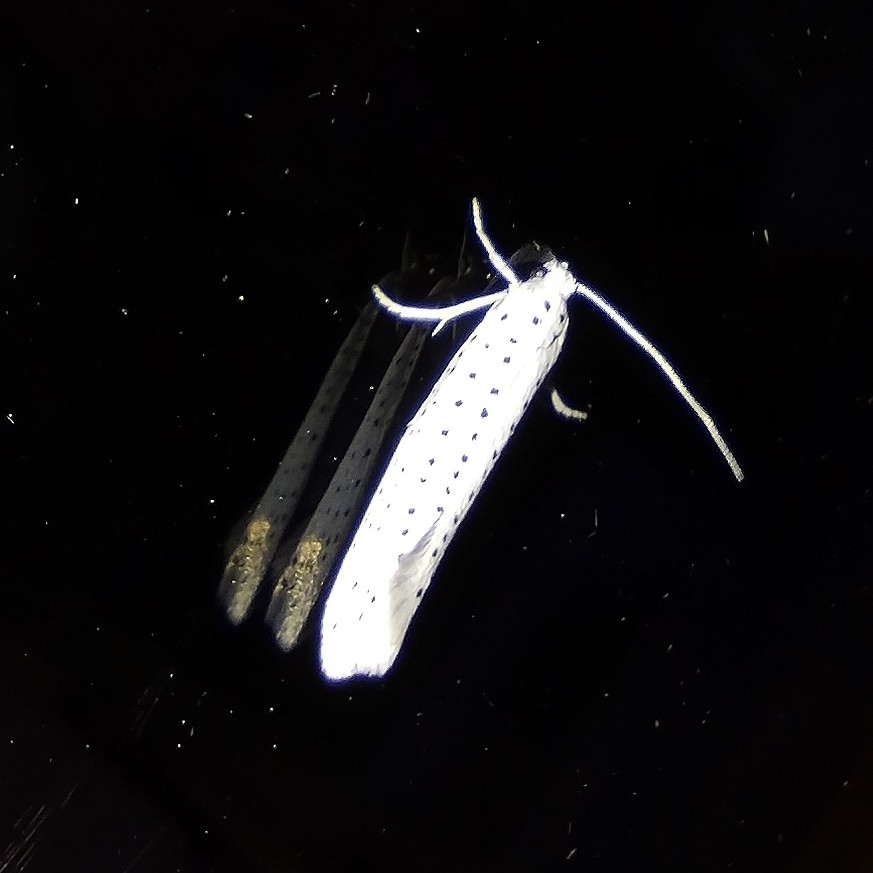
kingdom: Animalia
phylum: Arthropoda
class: Insecta
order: Lepidoptera
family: Yponomeutidae
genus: Yponomeuta
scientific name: Yponomeuta evonymella
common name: Bird-cherry ermine
